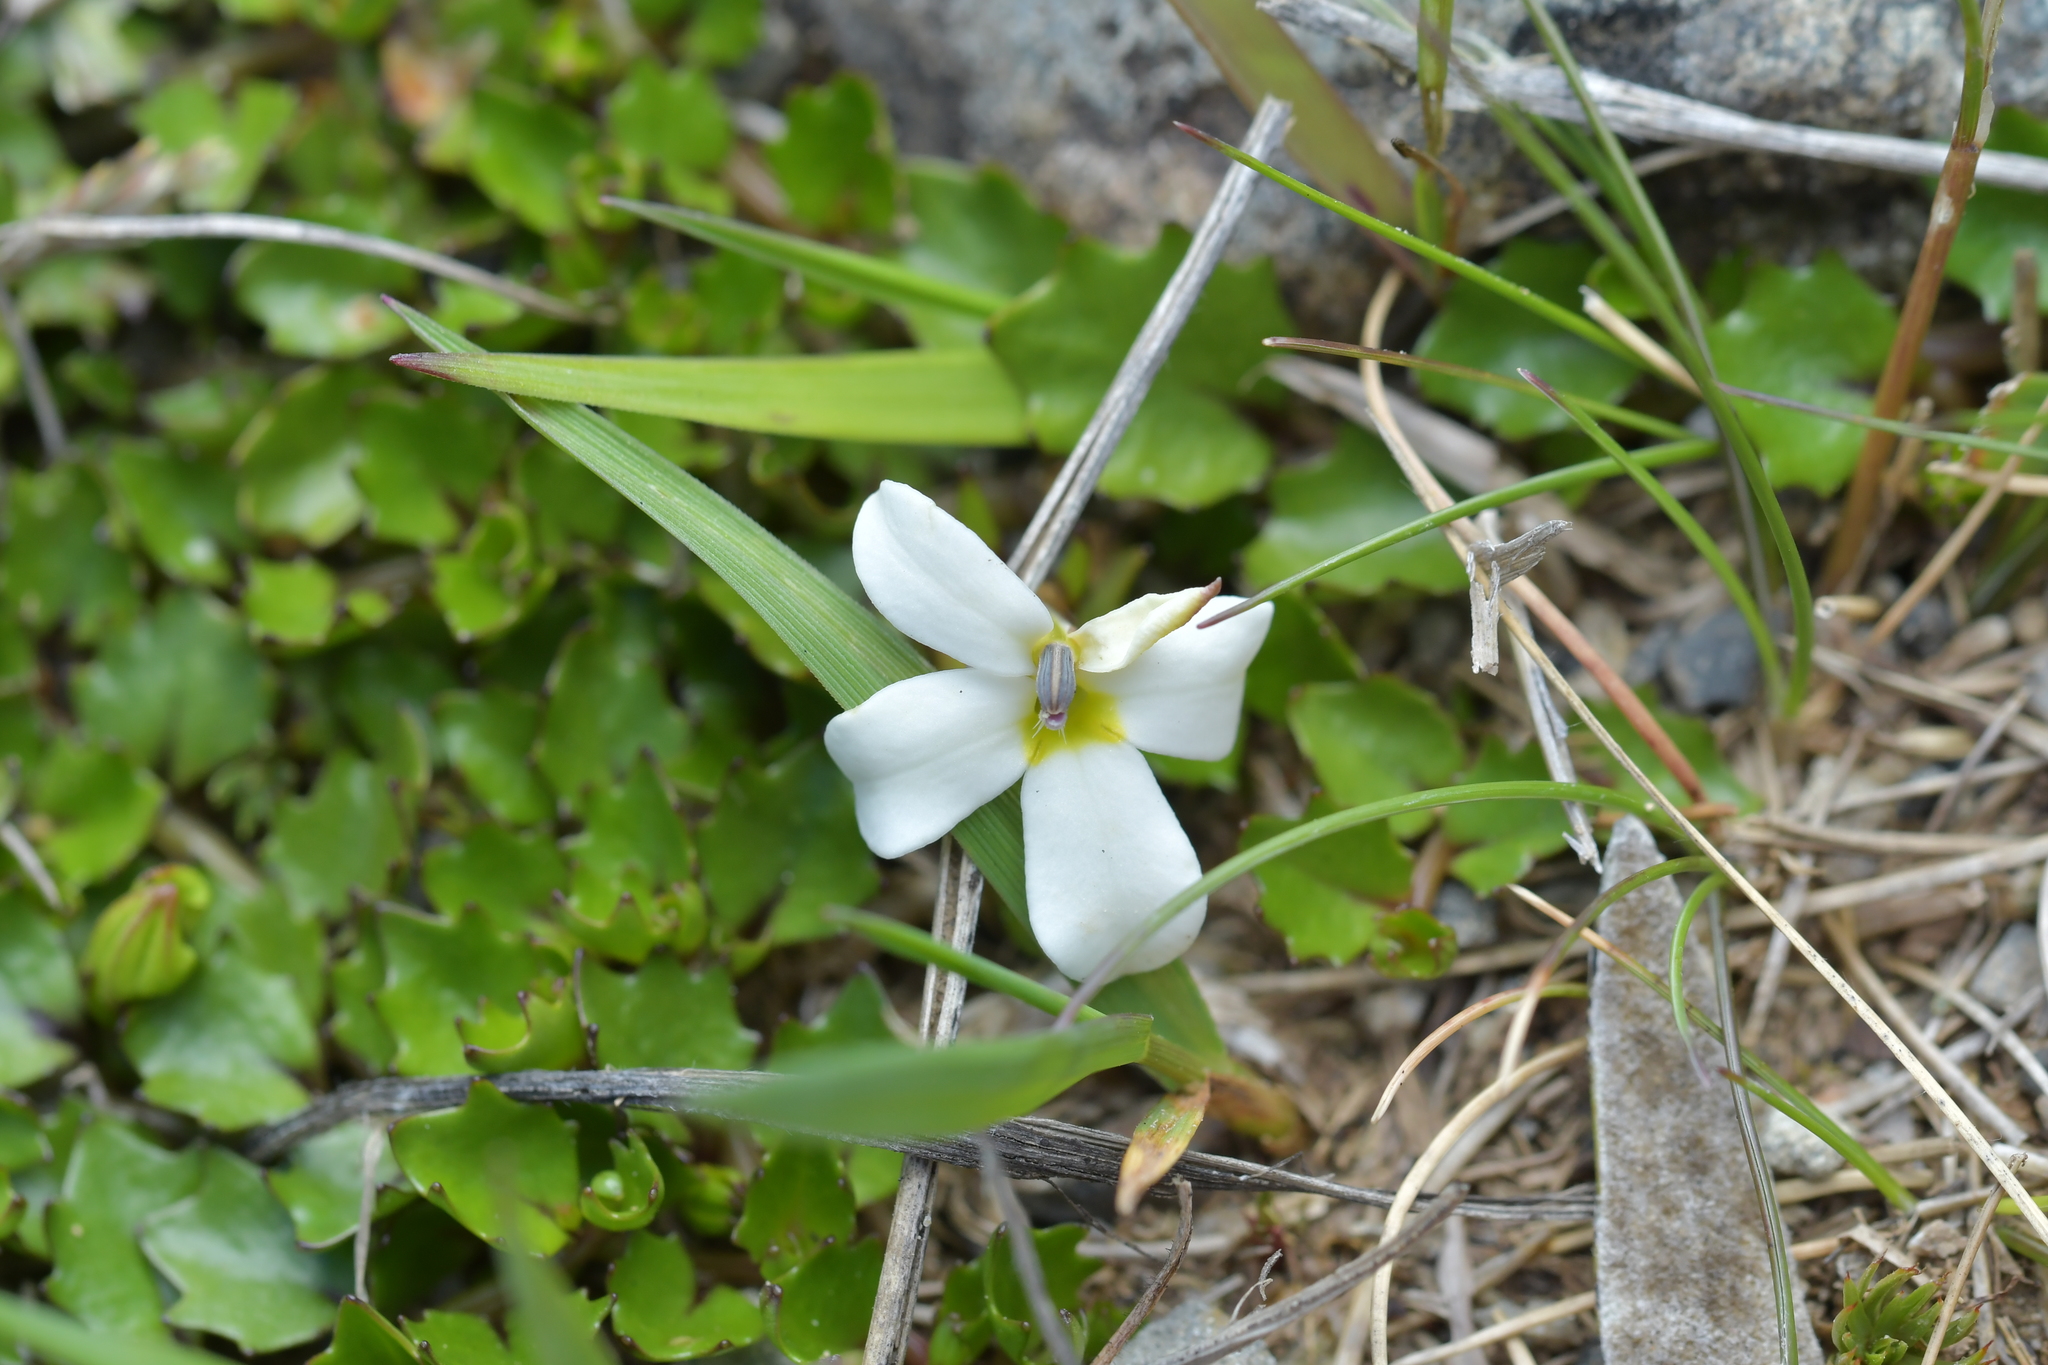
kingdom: Plantae
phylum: Tracheophyta
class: Magnoliopsida
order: Asterales
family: Campanulaceae
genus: Lobelia
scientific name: Lobelia macrodon
